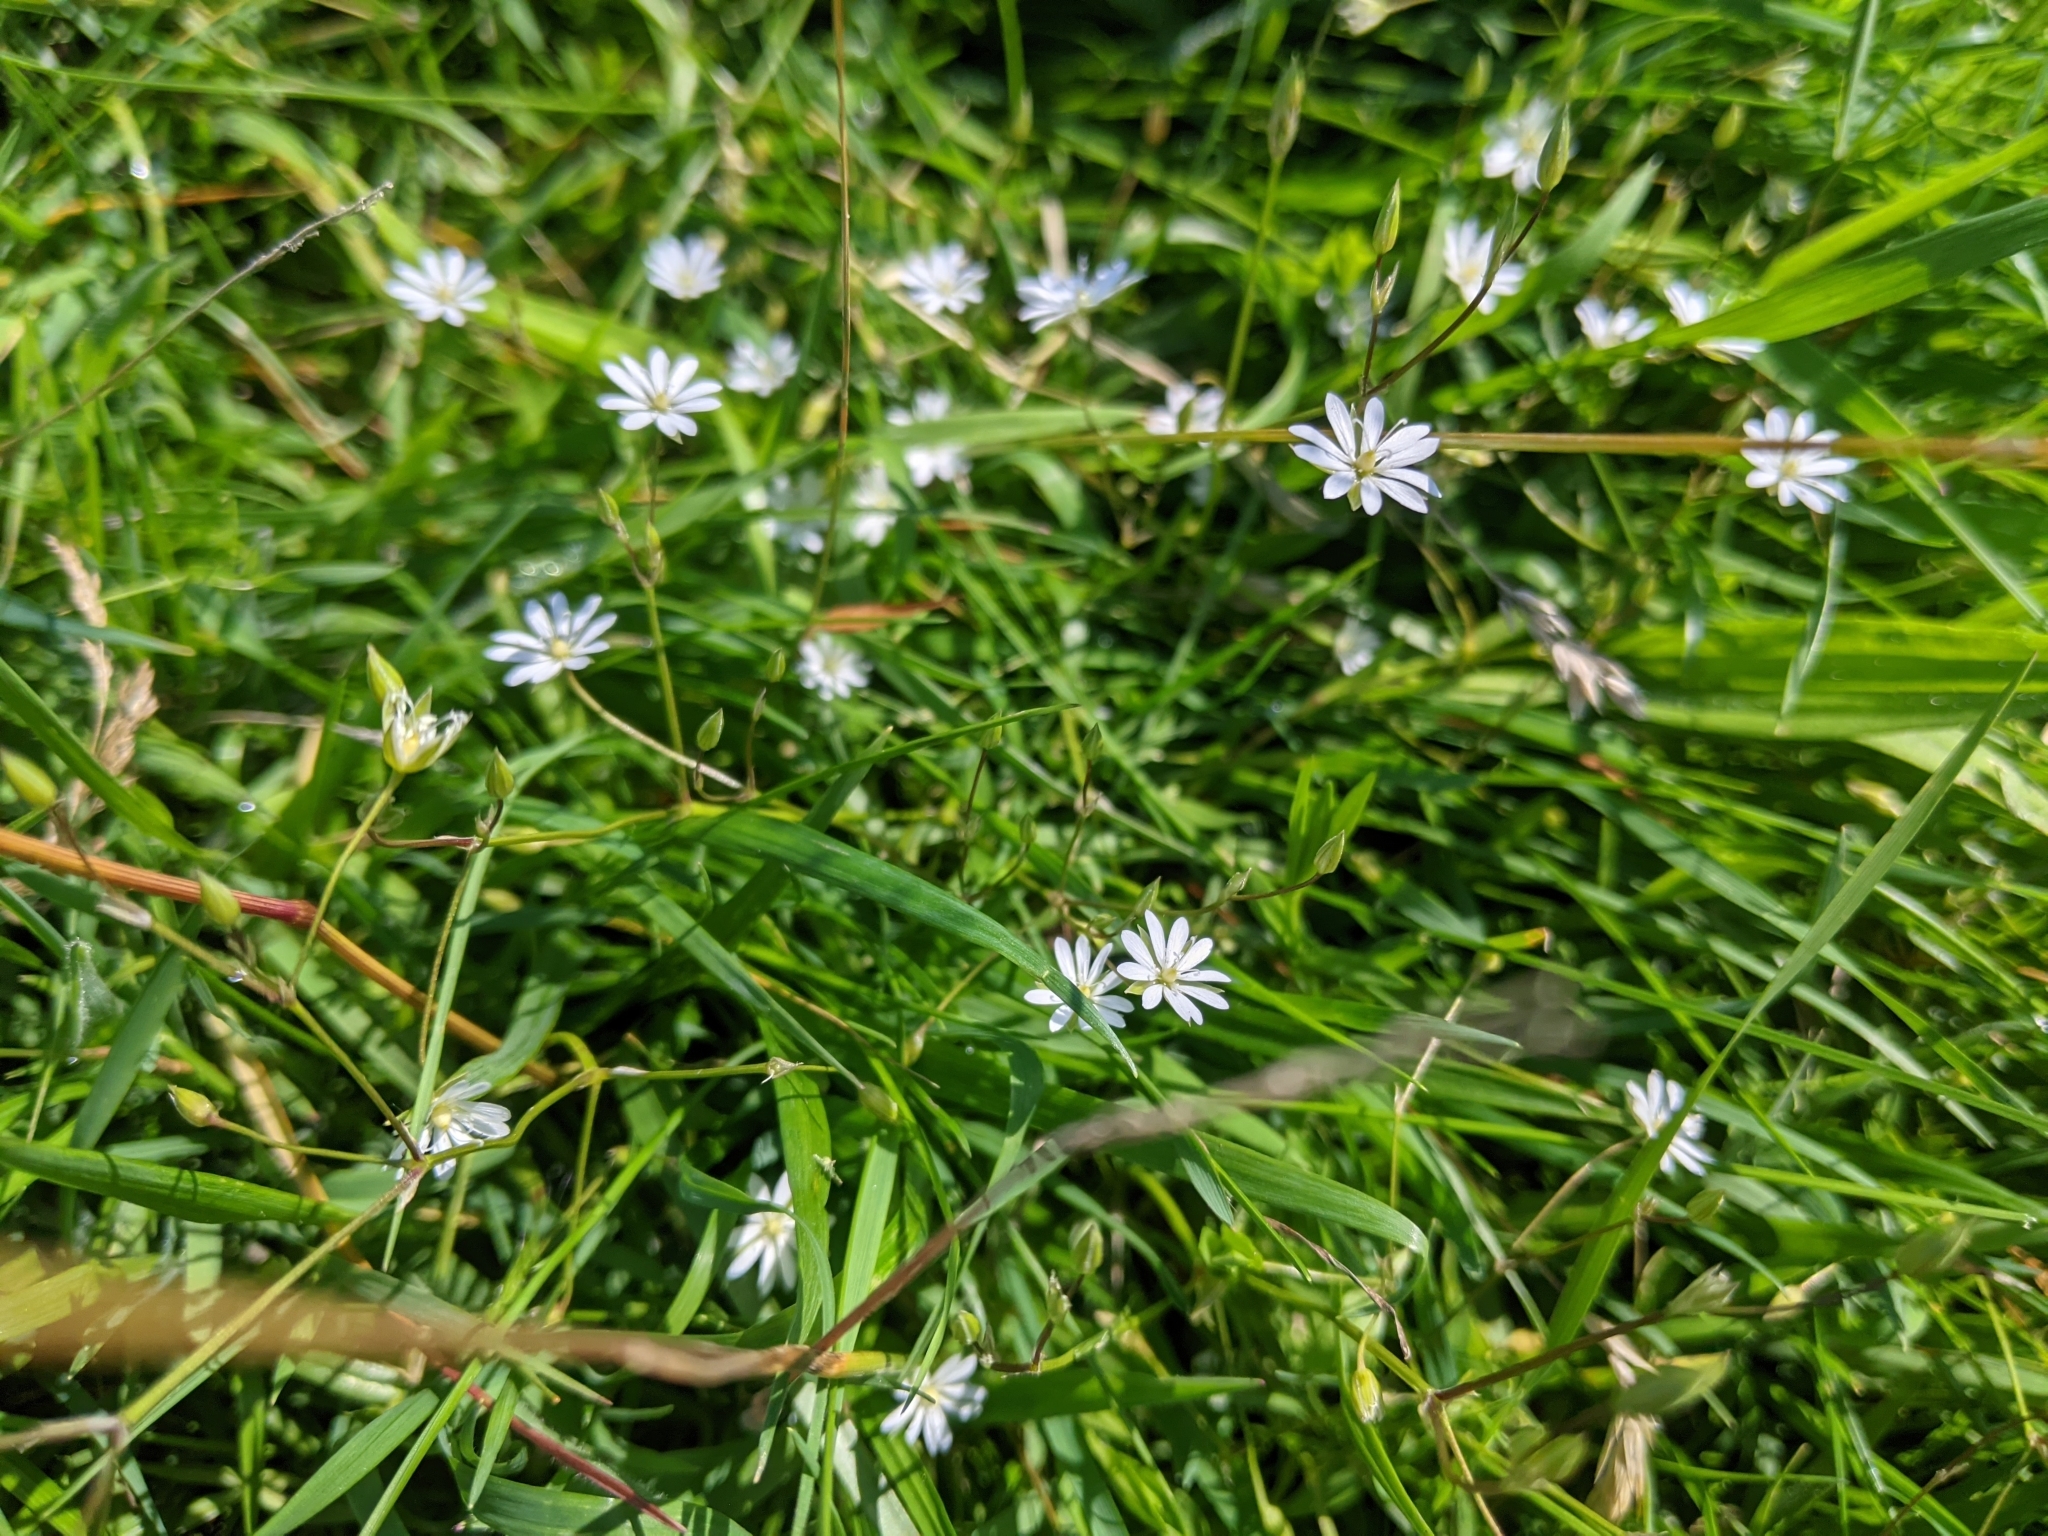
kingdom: Plantae
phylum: Tracheophyta
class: Magnoliopsida
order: Caryophyllales
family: Caryophyllaceae
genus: Stellaria
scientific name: Stellaria graminea
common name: Grass-like starwort
